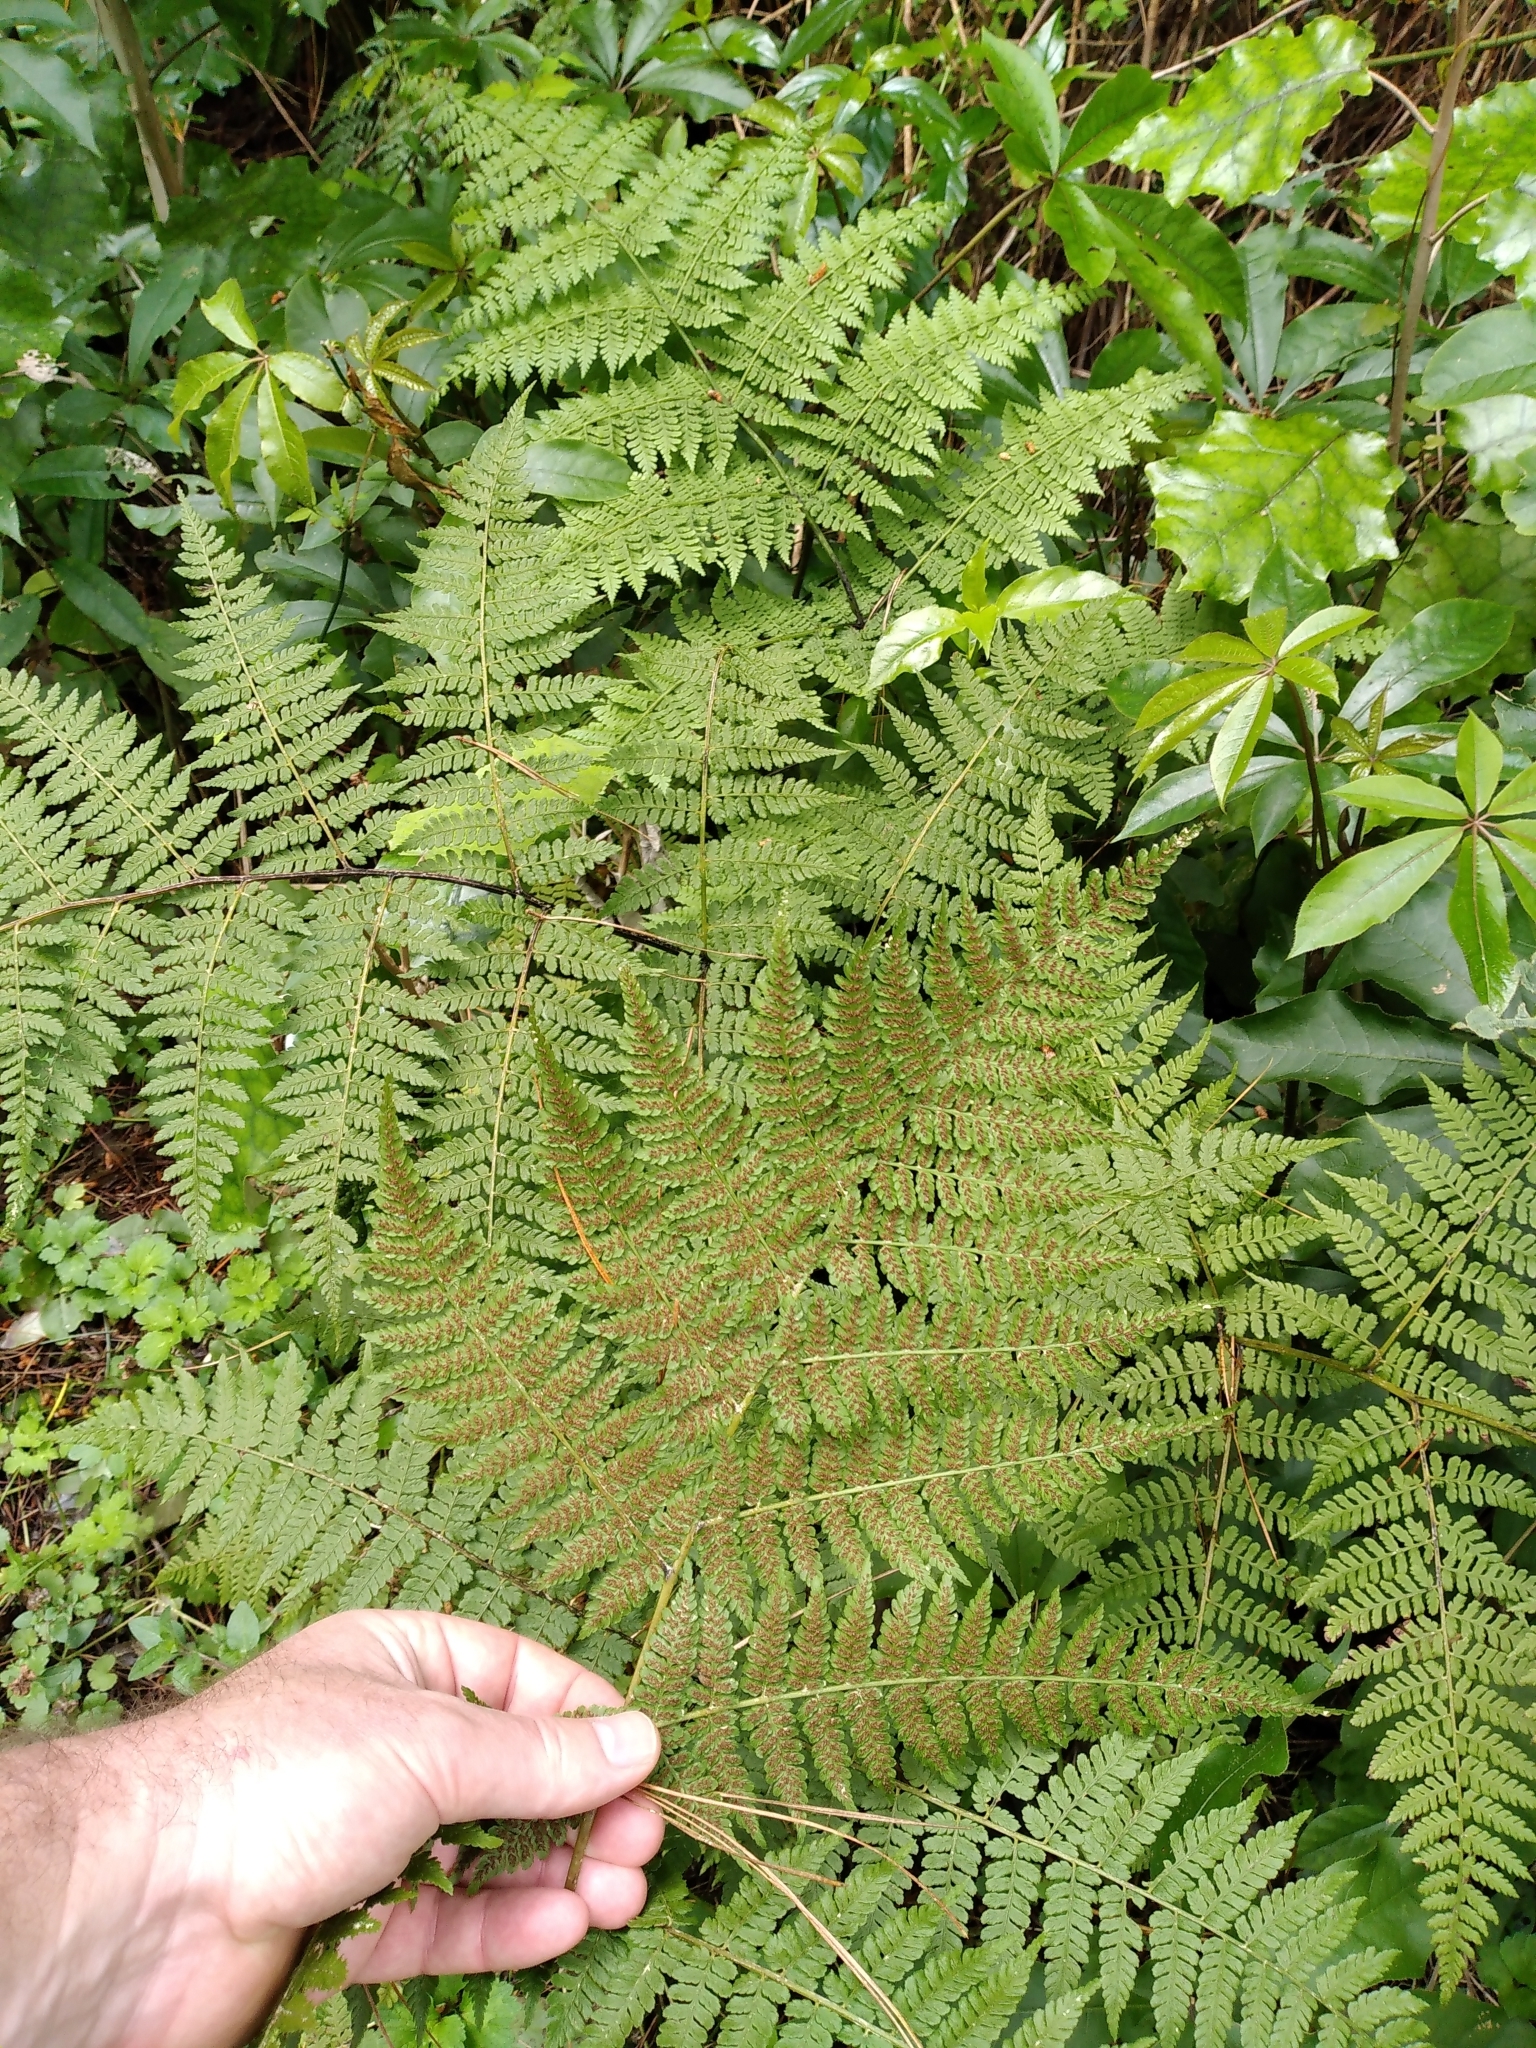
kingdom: Plantae
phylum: Tracheophyta
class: Polypodiopsida
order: Polypodiales
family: Athyriaceae
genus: Diplazium
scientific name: Diplazium australe
